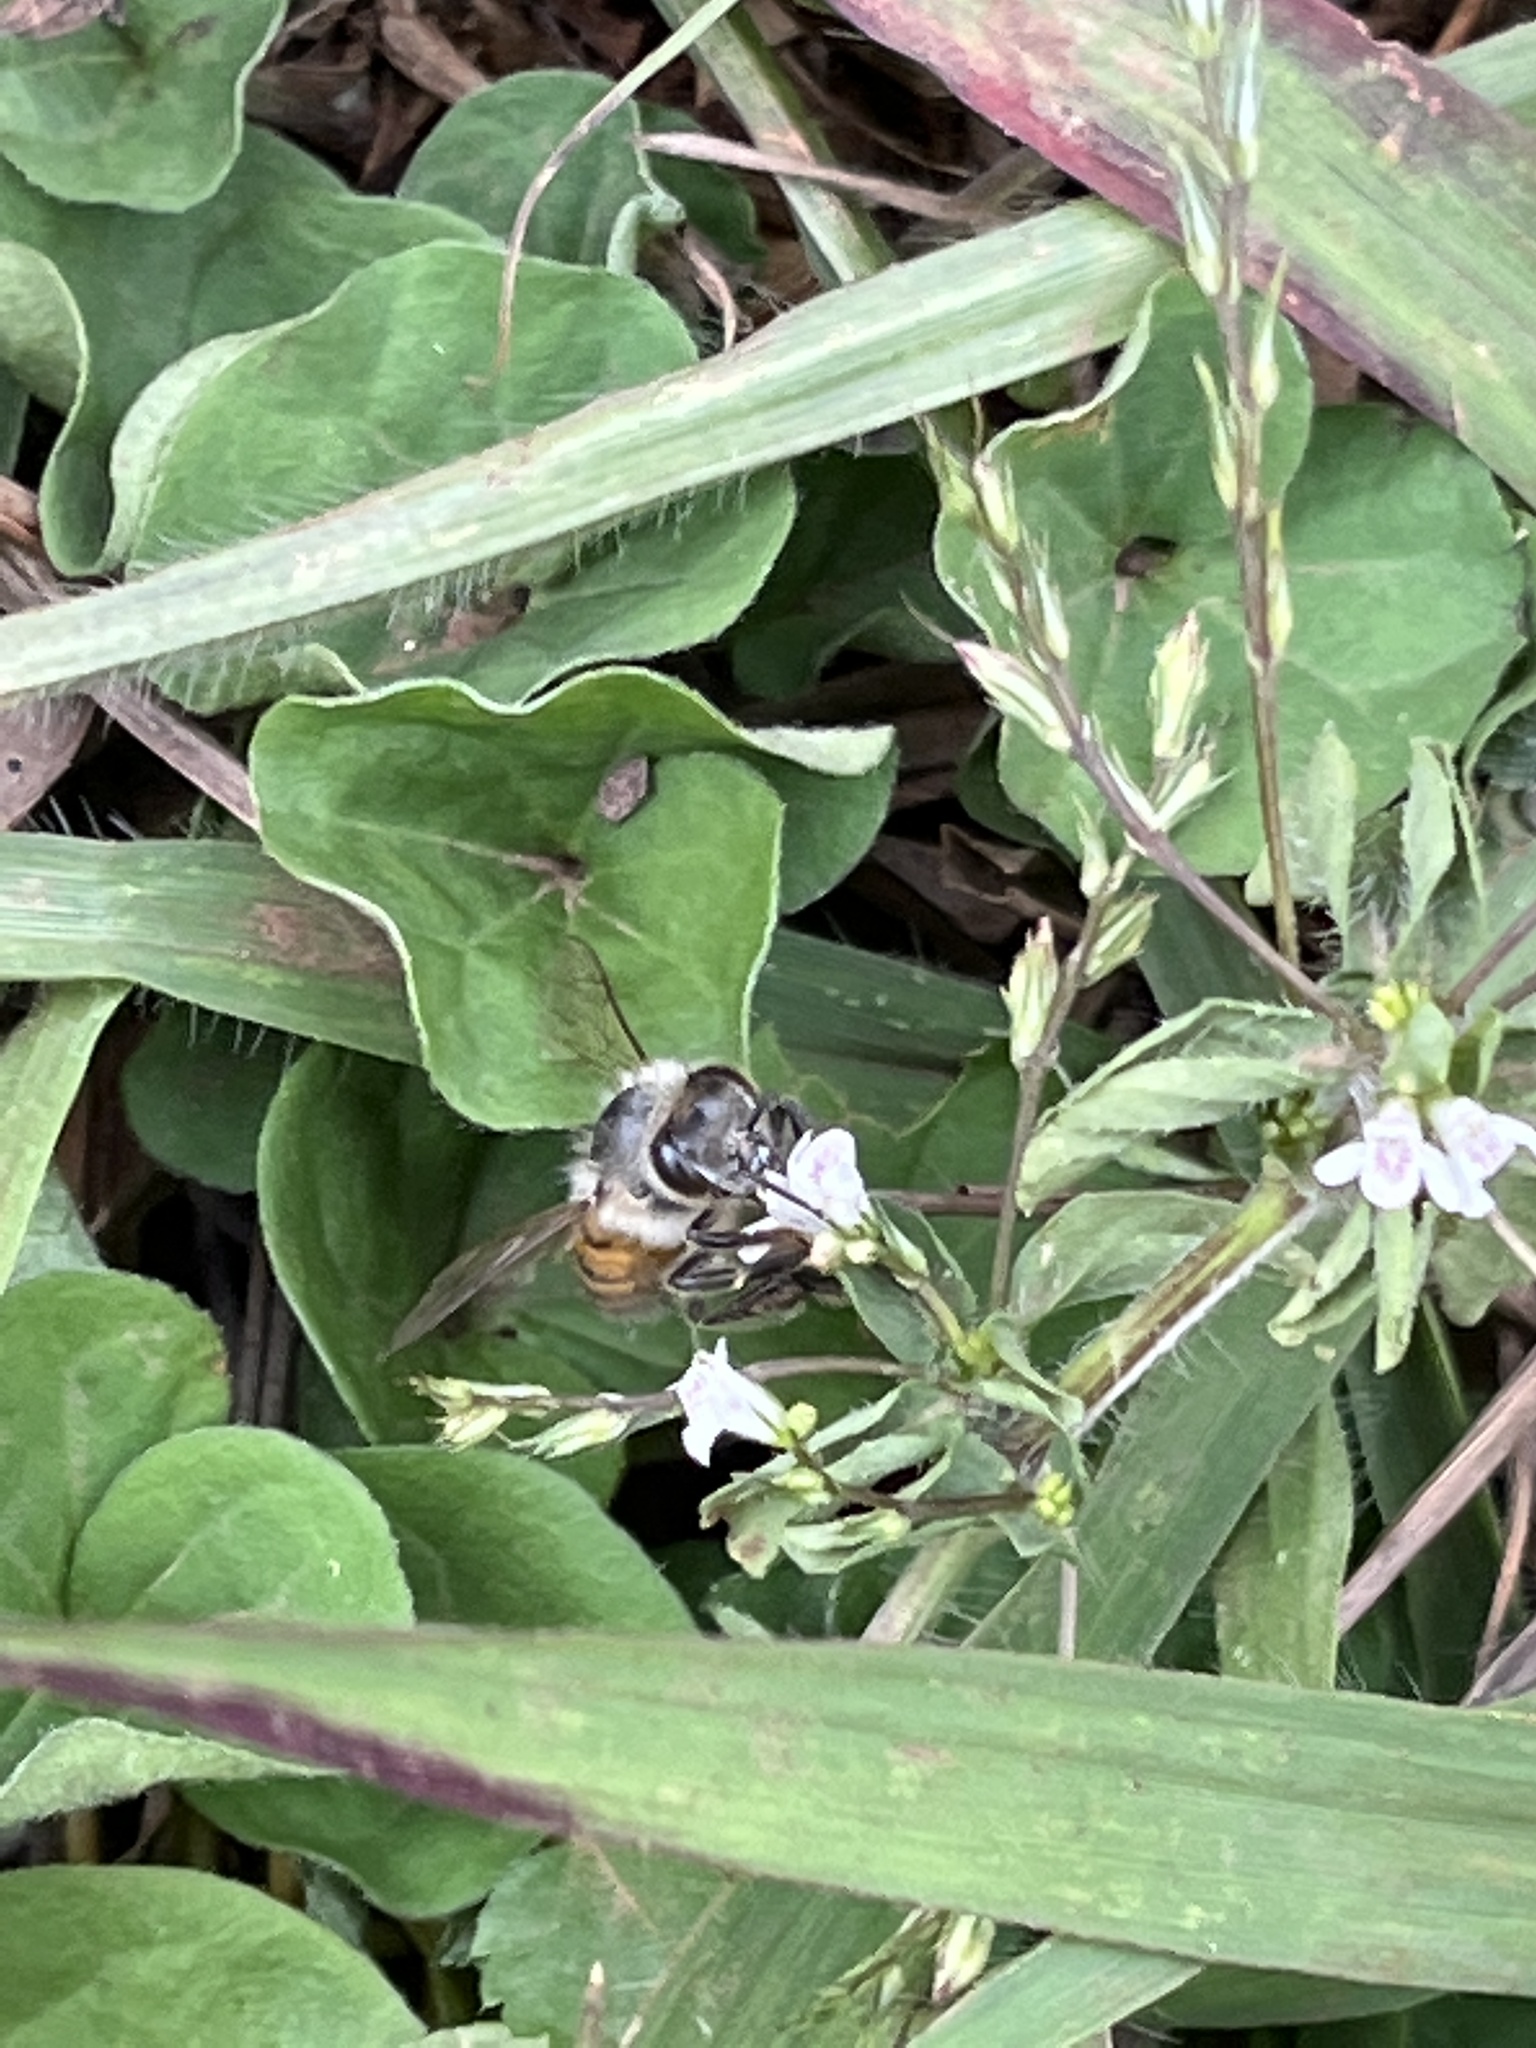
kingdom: Animalia
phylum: Arthropoda
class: Insecta
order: Hymenoptera
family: Apidae
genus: Apis
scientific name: Apis mellifera
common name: Honey bee
